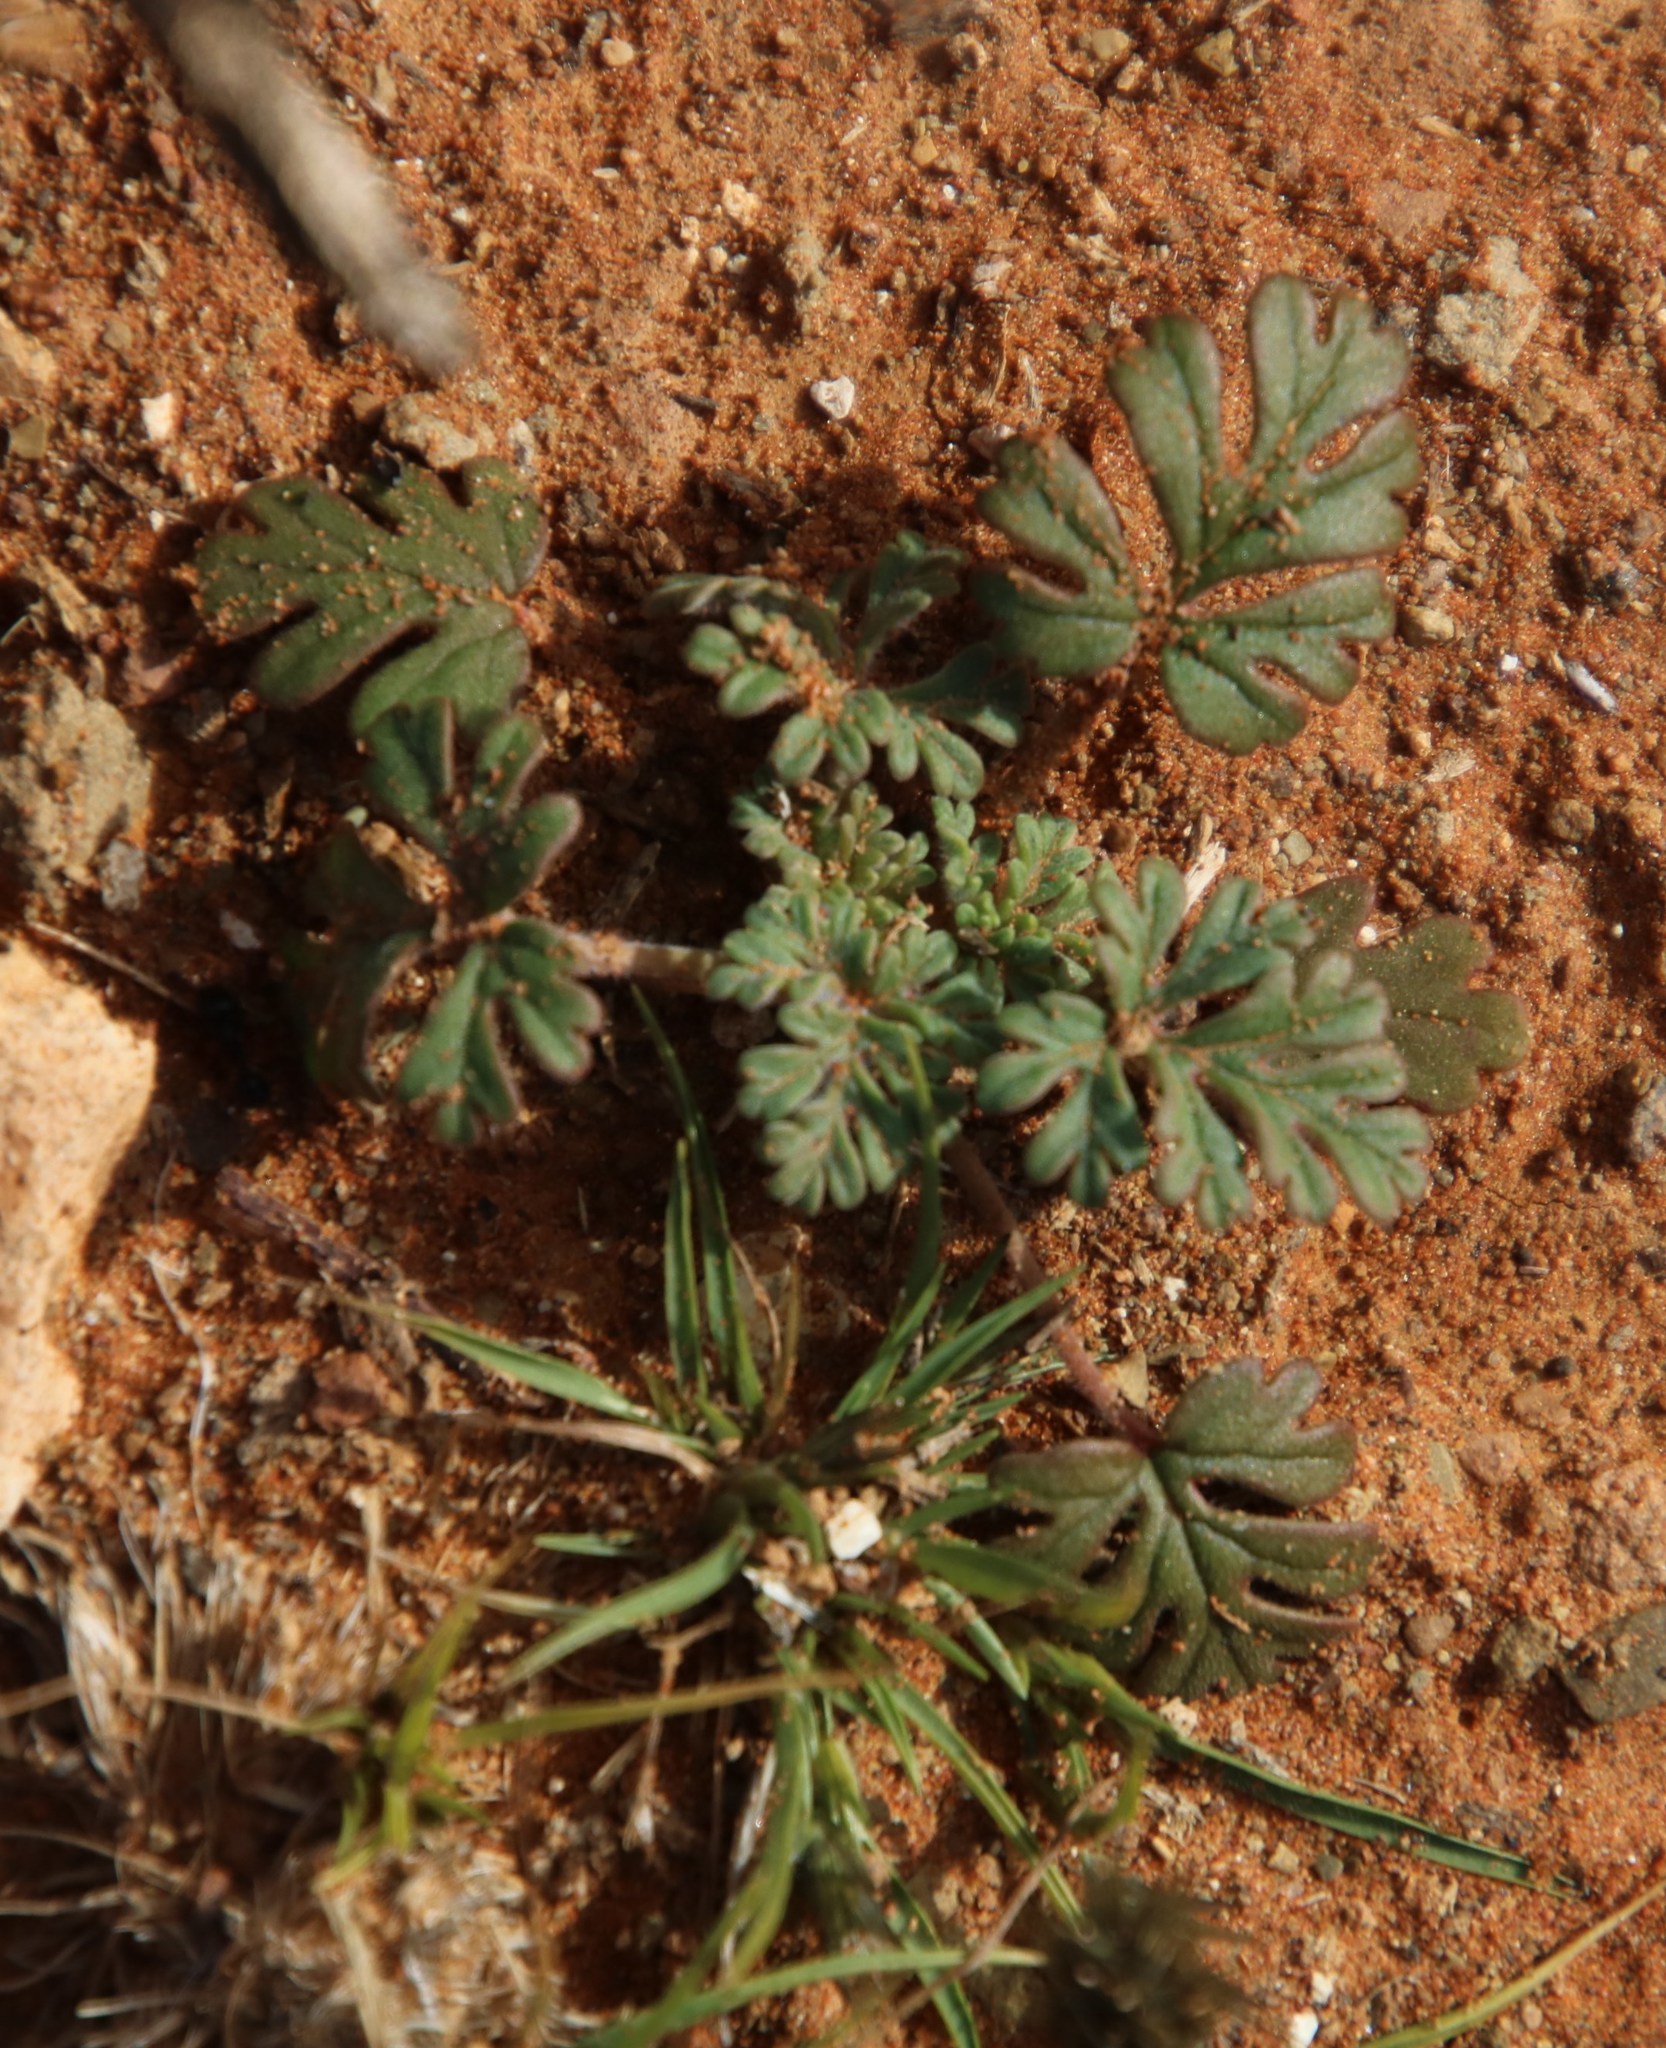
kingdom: Plantae
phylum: Tracheophyta
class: Magnoliopsida
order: Geraniales
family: Geraniaceae
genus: Pelargonium
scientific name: Pelargonium minimum
